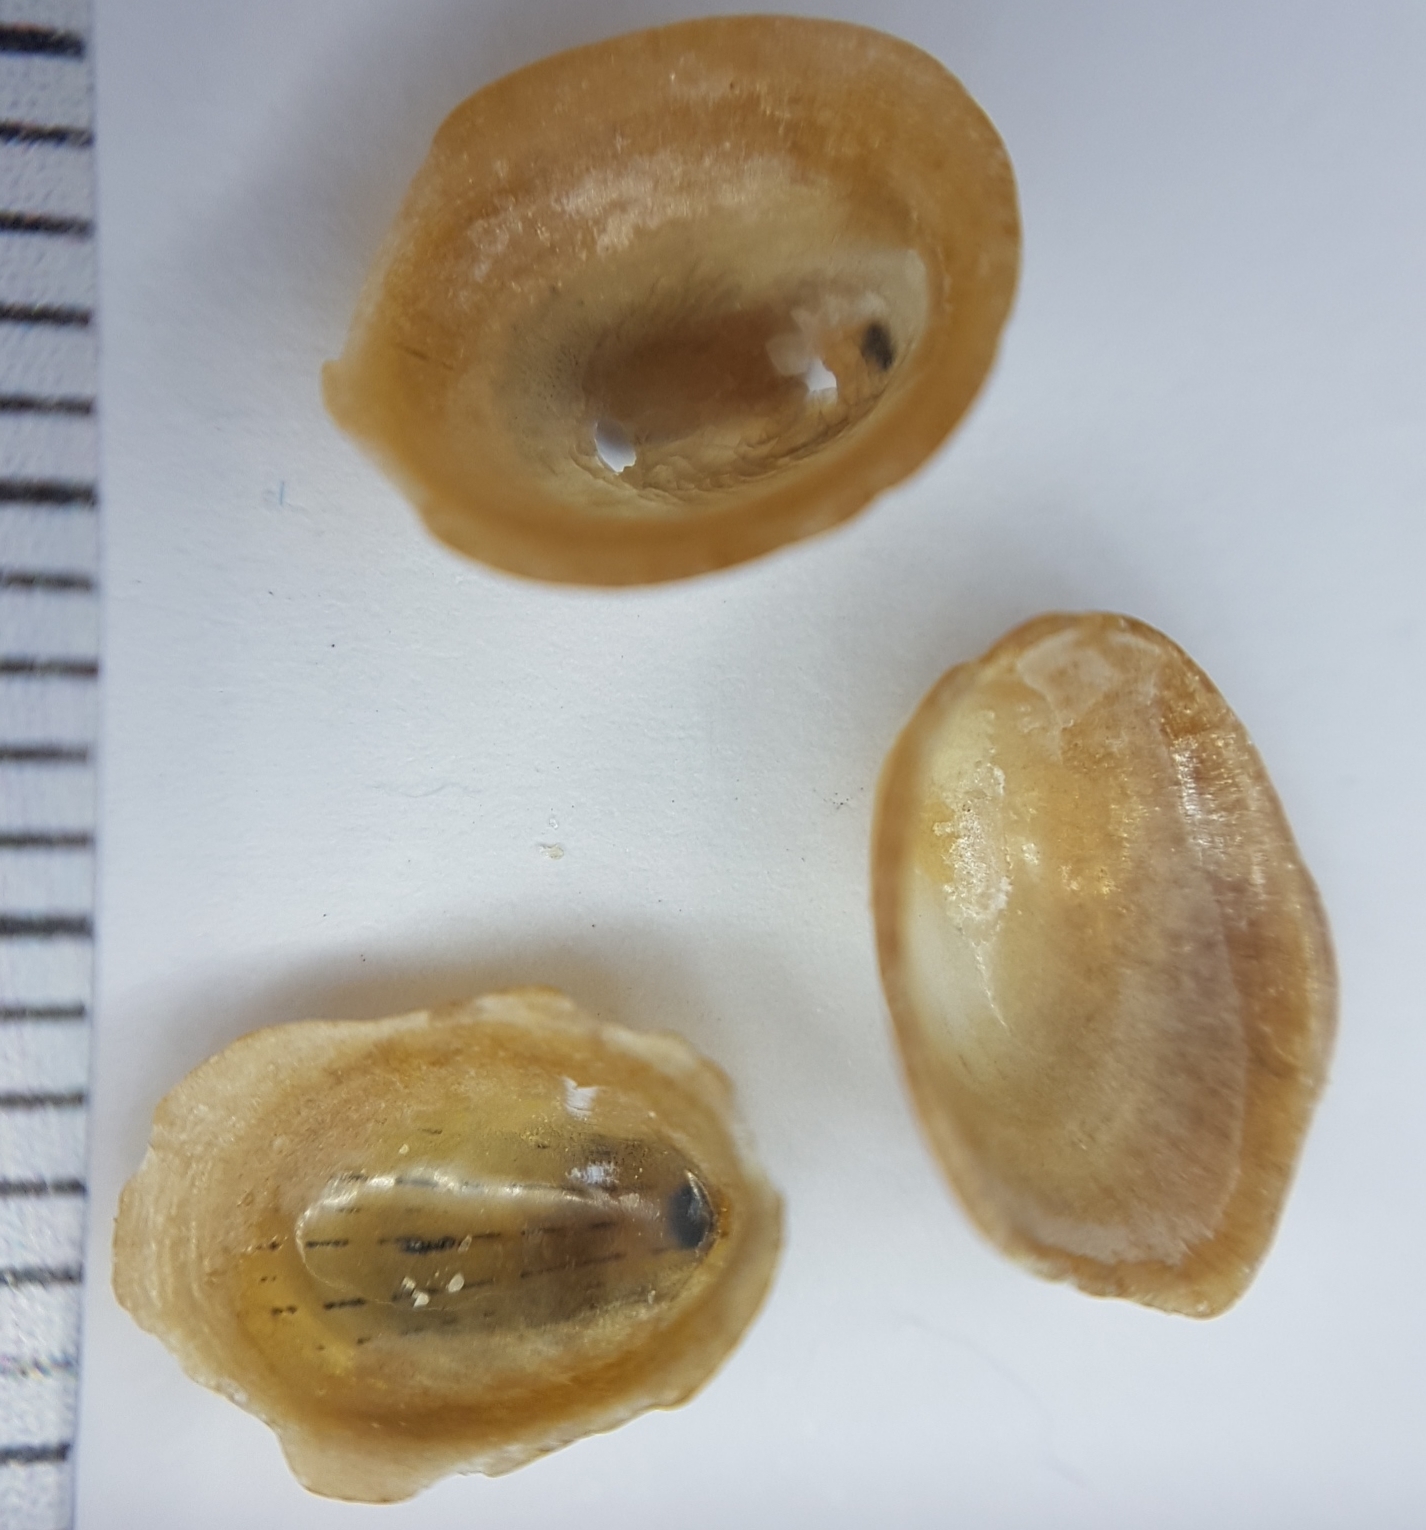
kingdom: Animalia
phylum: Mollusca
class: Gastropoda
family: Patellidae
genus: Patella
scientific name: Patella pellucida
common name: Blue-rayed limpet
